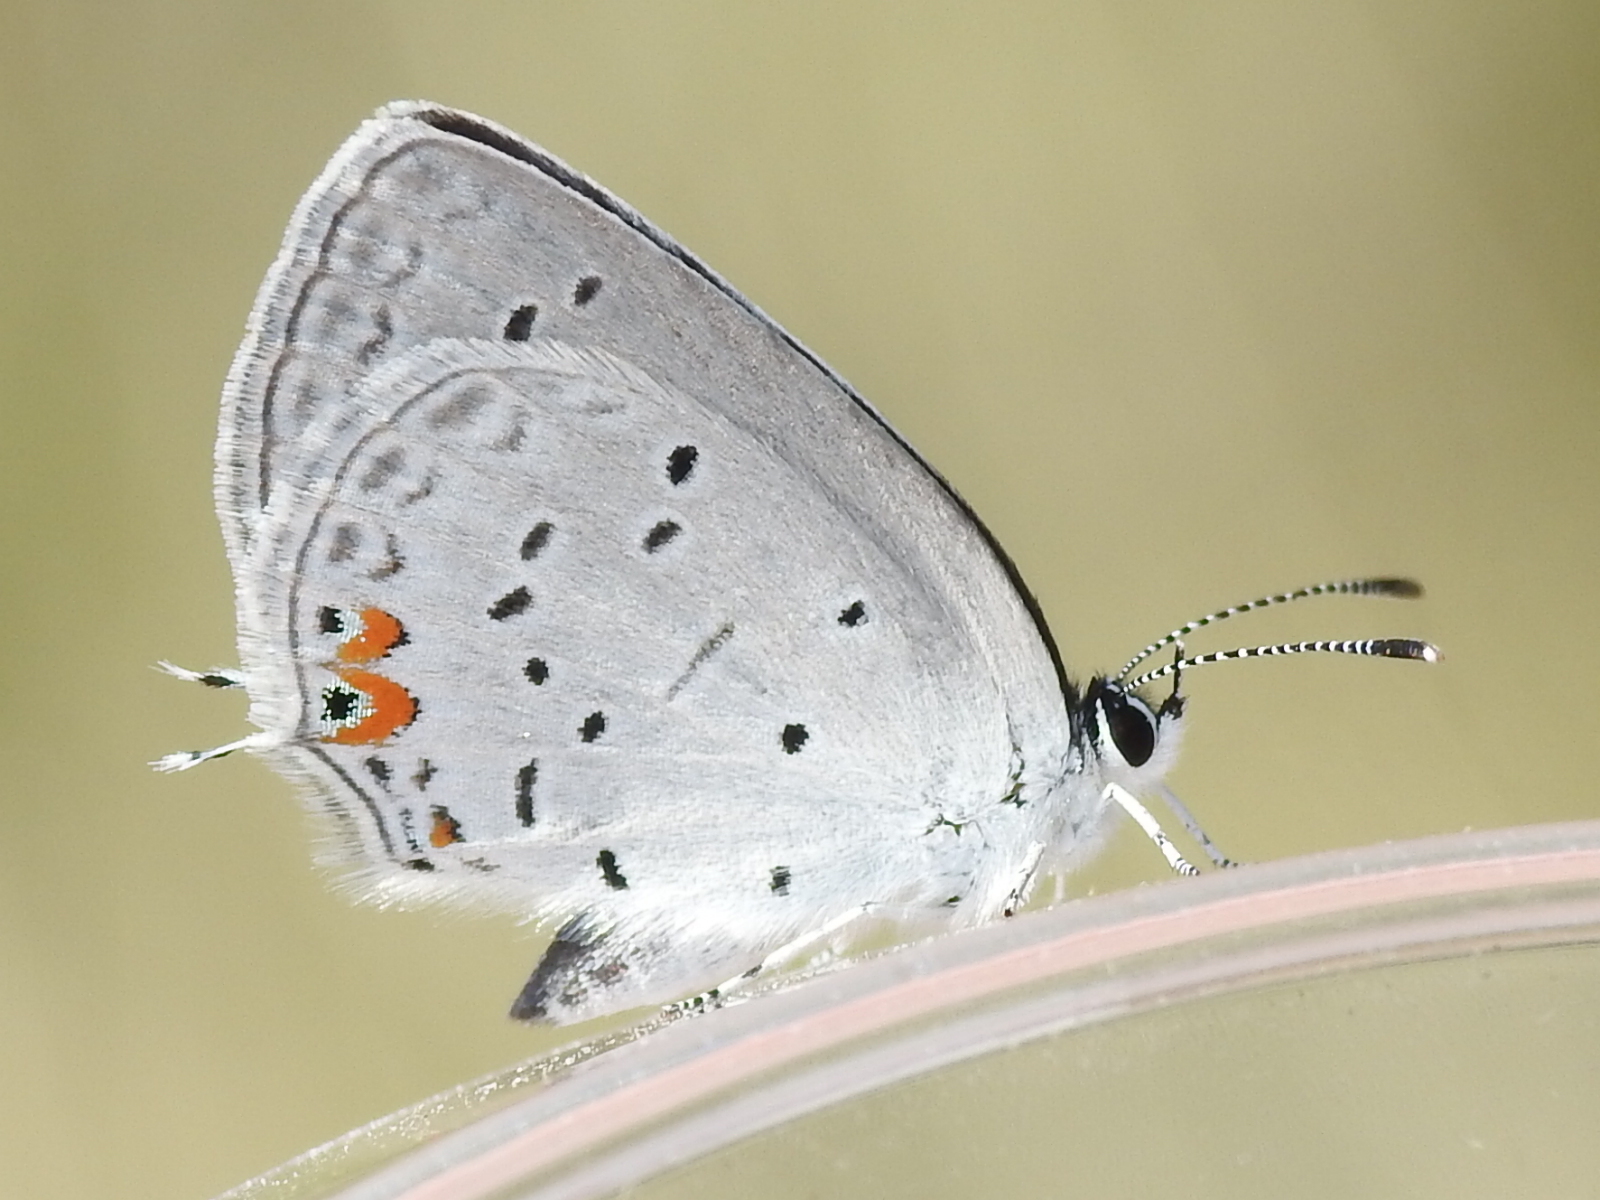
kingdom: Animalia
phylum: Arthropoda
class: Insecta
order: Lepidoptera
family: Lycaenidae
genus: Elkalyce
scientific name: Elkalyce comyntas
